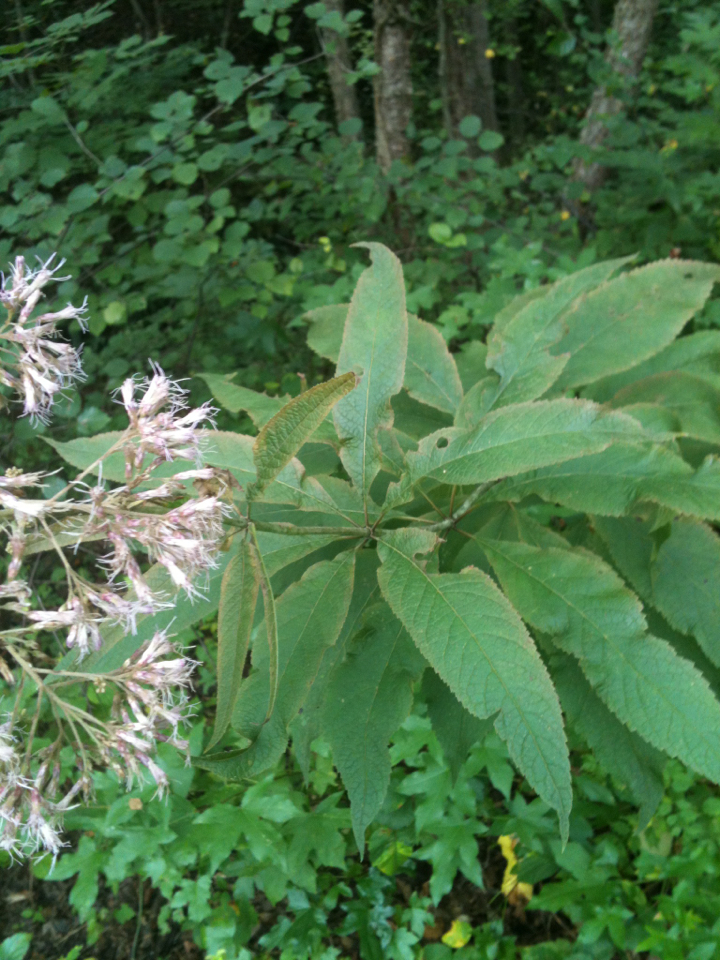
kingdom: Plantae
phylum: Tracheophyta
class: Magnoliopsida
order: Asterales
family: Asteraceae
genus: Eutrochium
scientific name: Eutrochium purpureum
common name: Gravelroot
